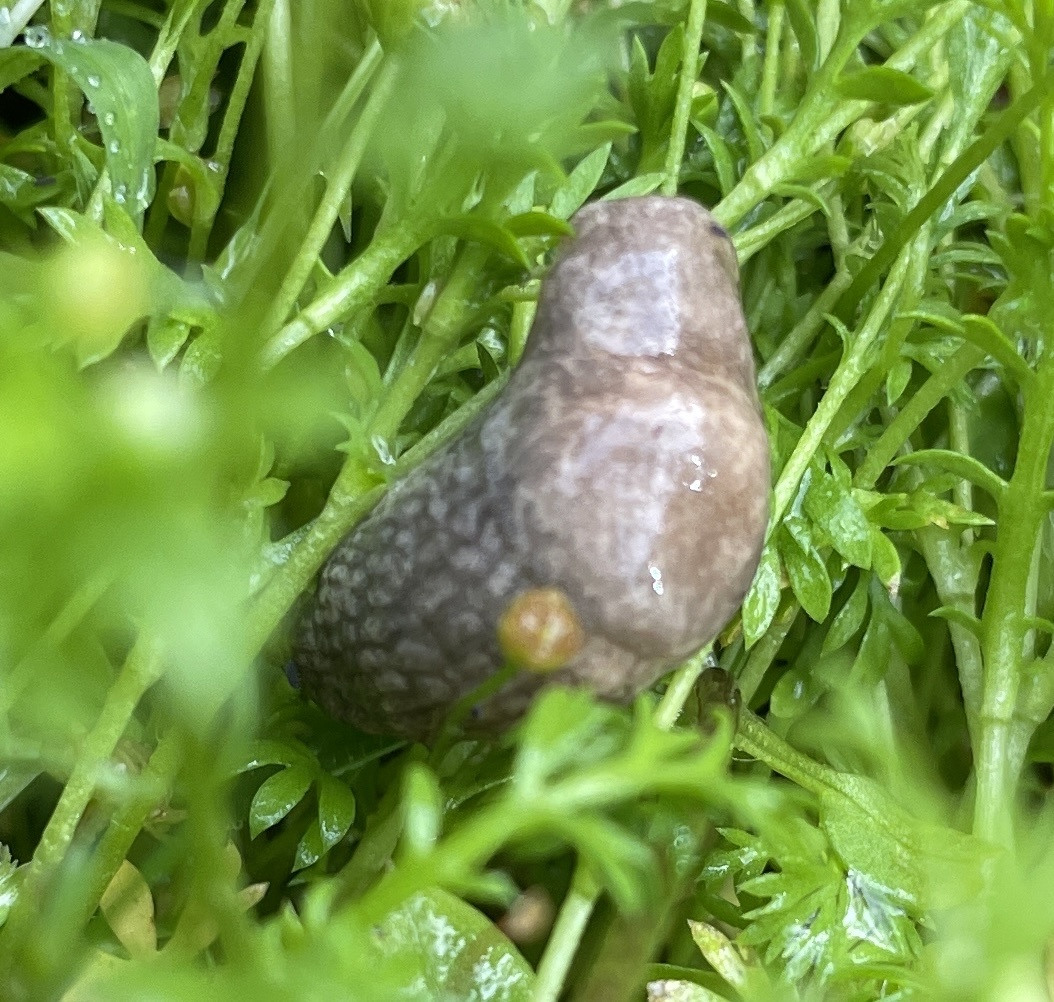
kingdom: Animalia
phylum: Mollusca
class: Gastropoda
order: Stylommatophora
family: Agriolimacidae
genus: Deroceras
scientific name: Deroceras reticulatum
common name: Gray field slug
